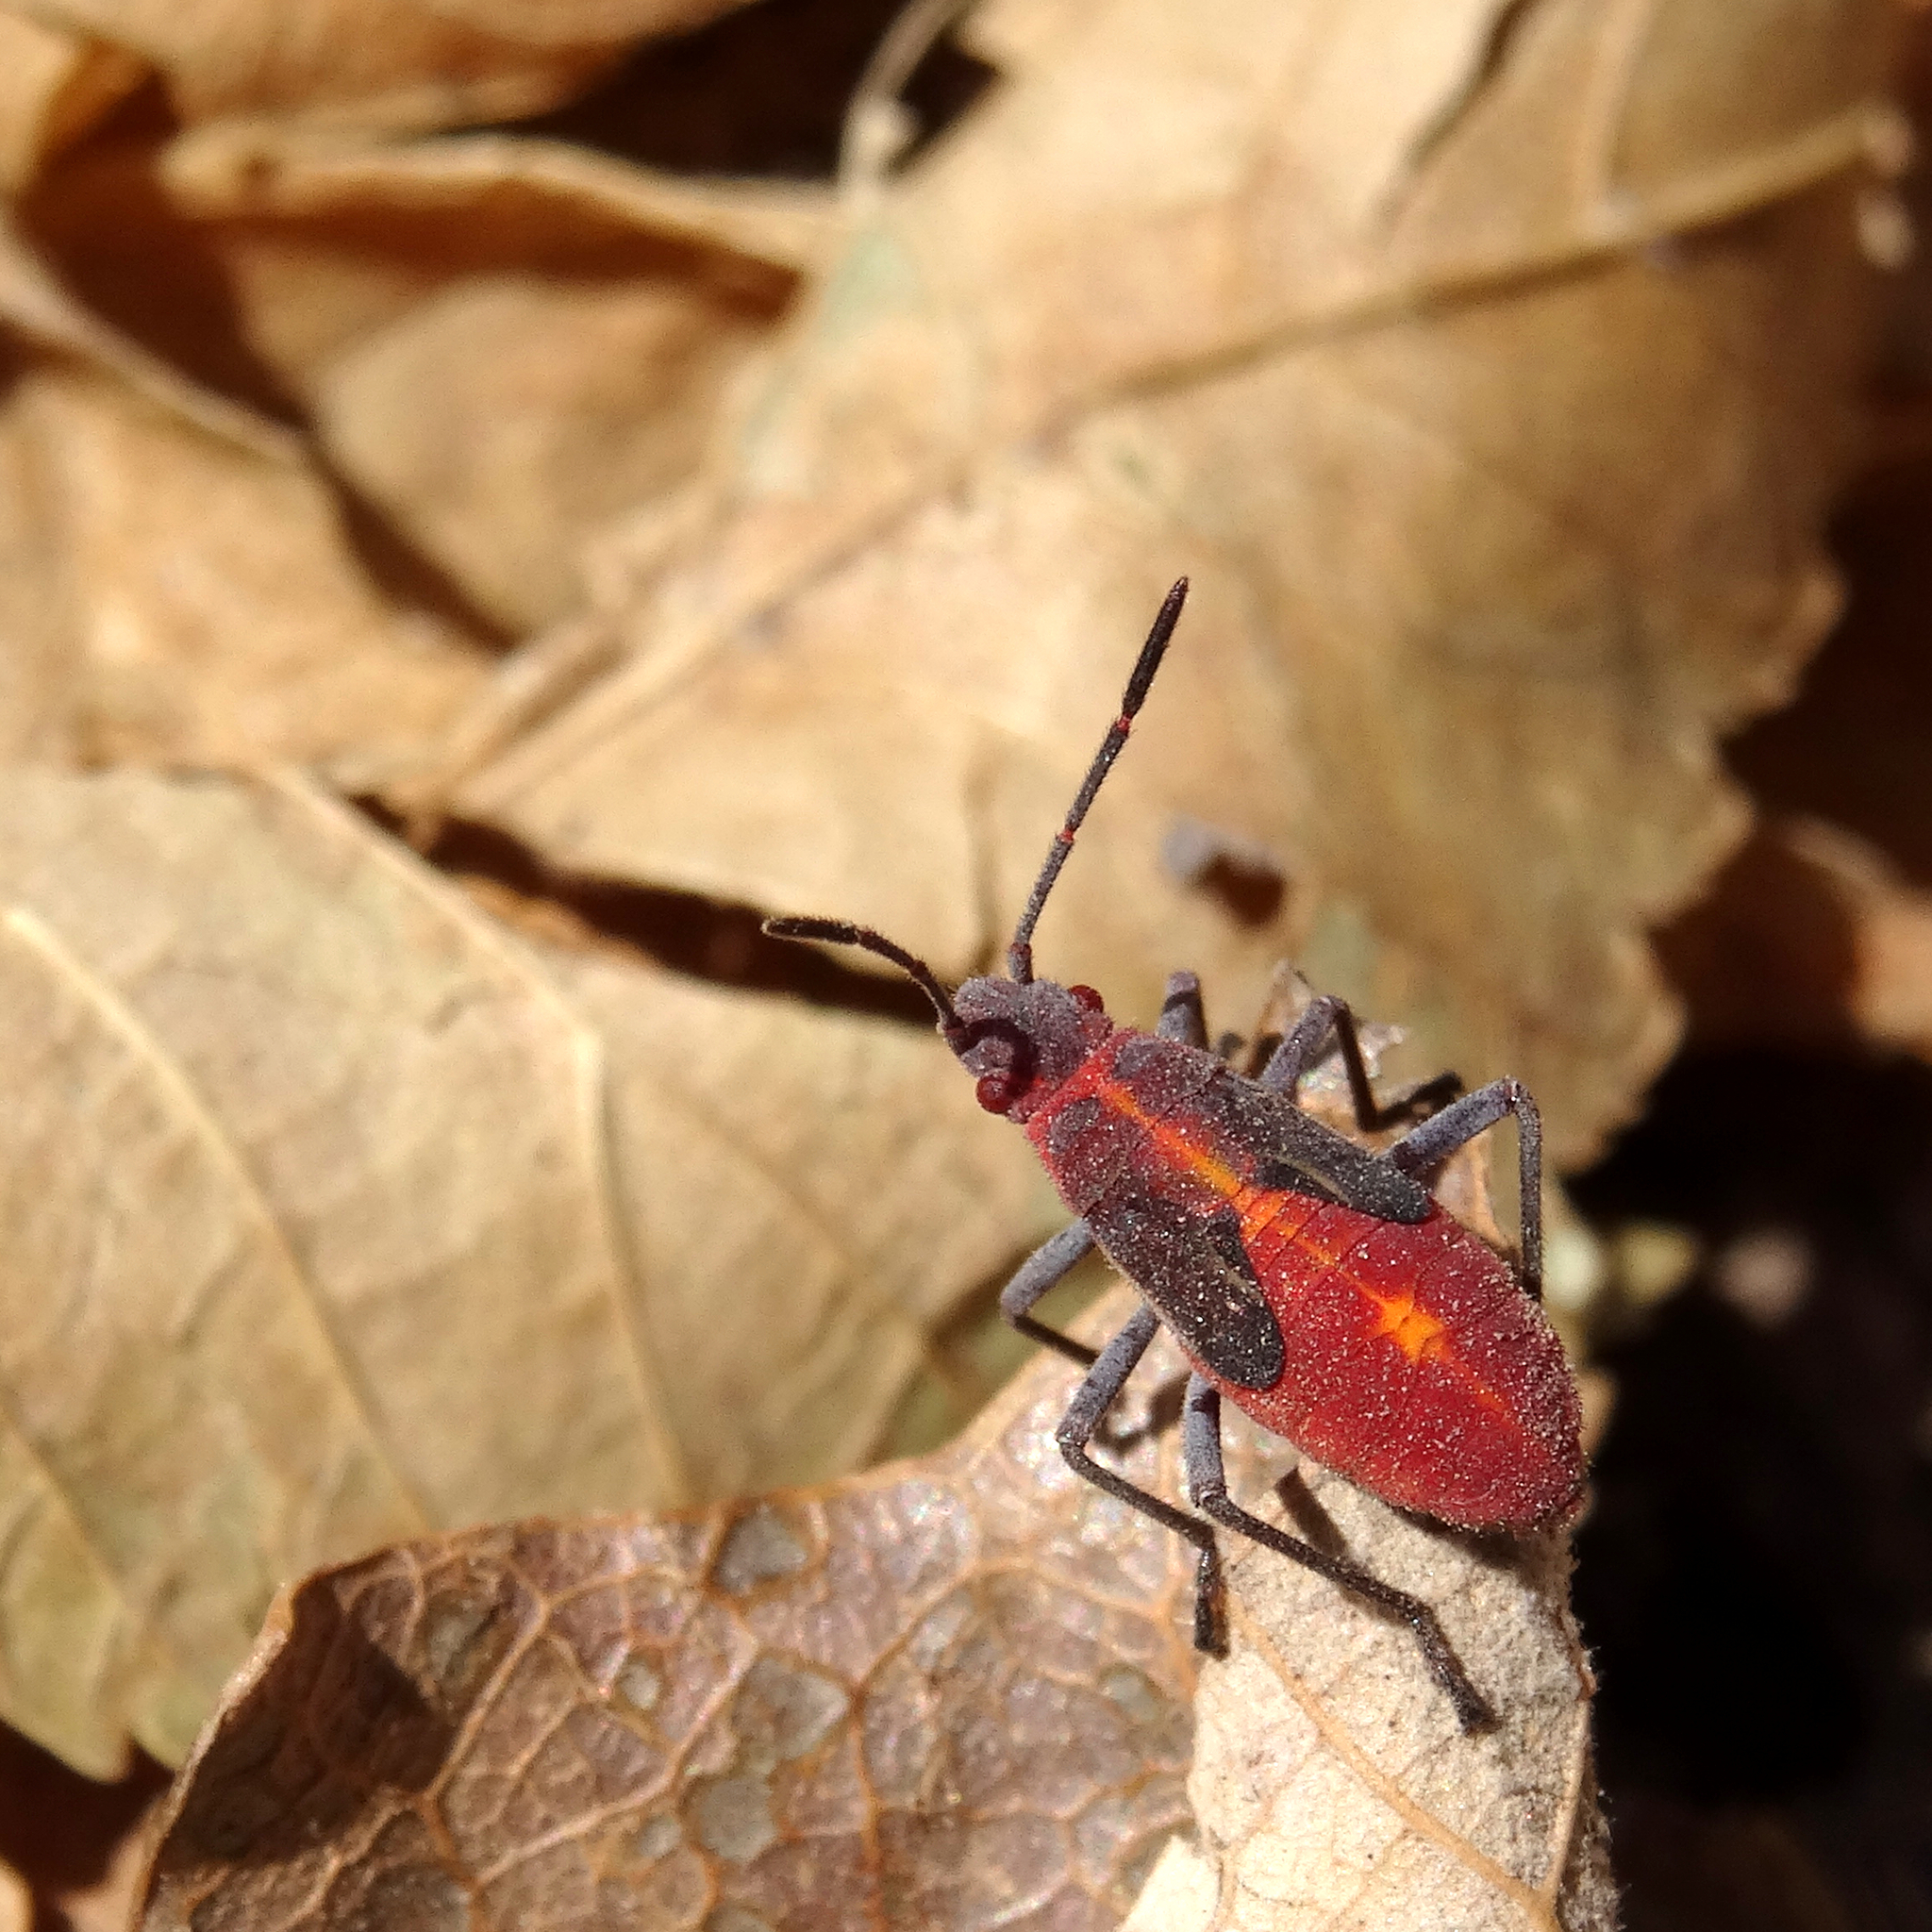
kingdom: Animalia
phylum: Arthropoda
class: Insecta
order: Hemiptera
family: Rhopalidae
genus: Boisea
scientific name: Boisea trivittata
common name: Boxelder bug
